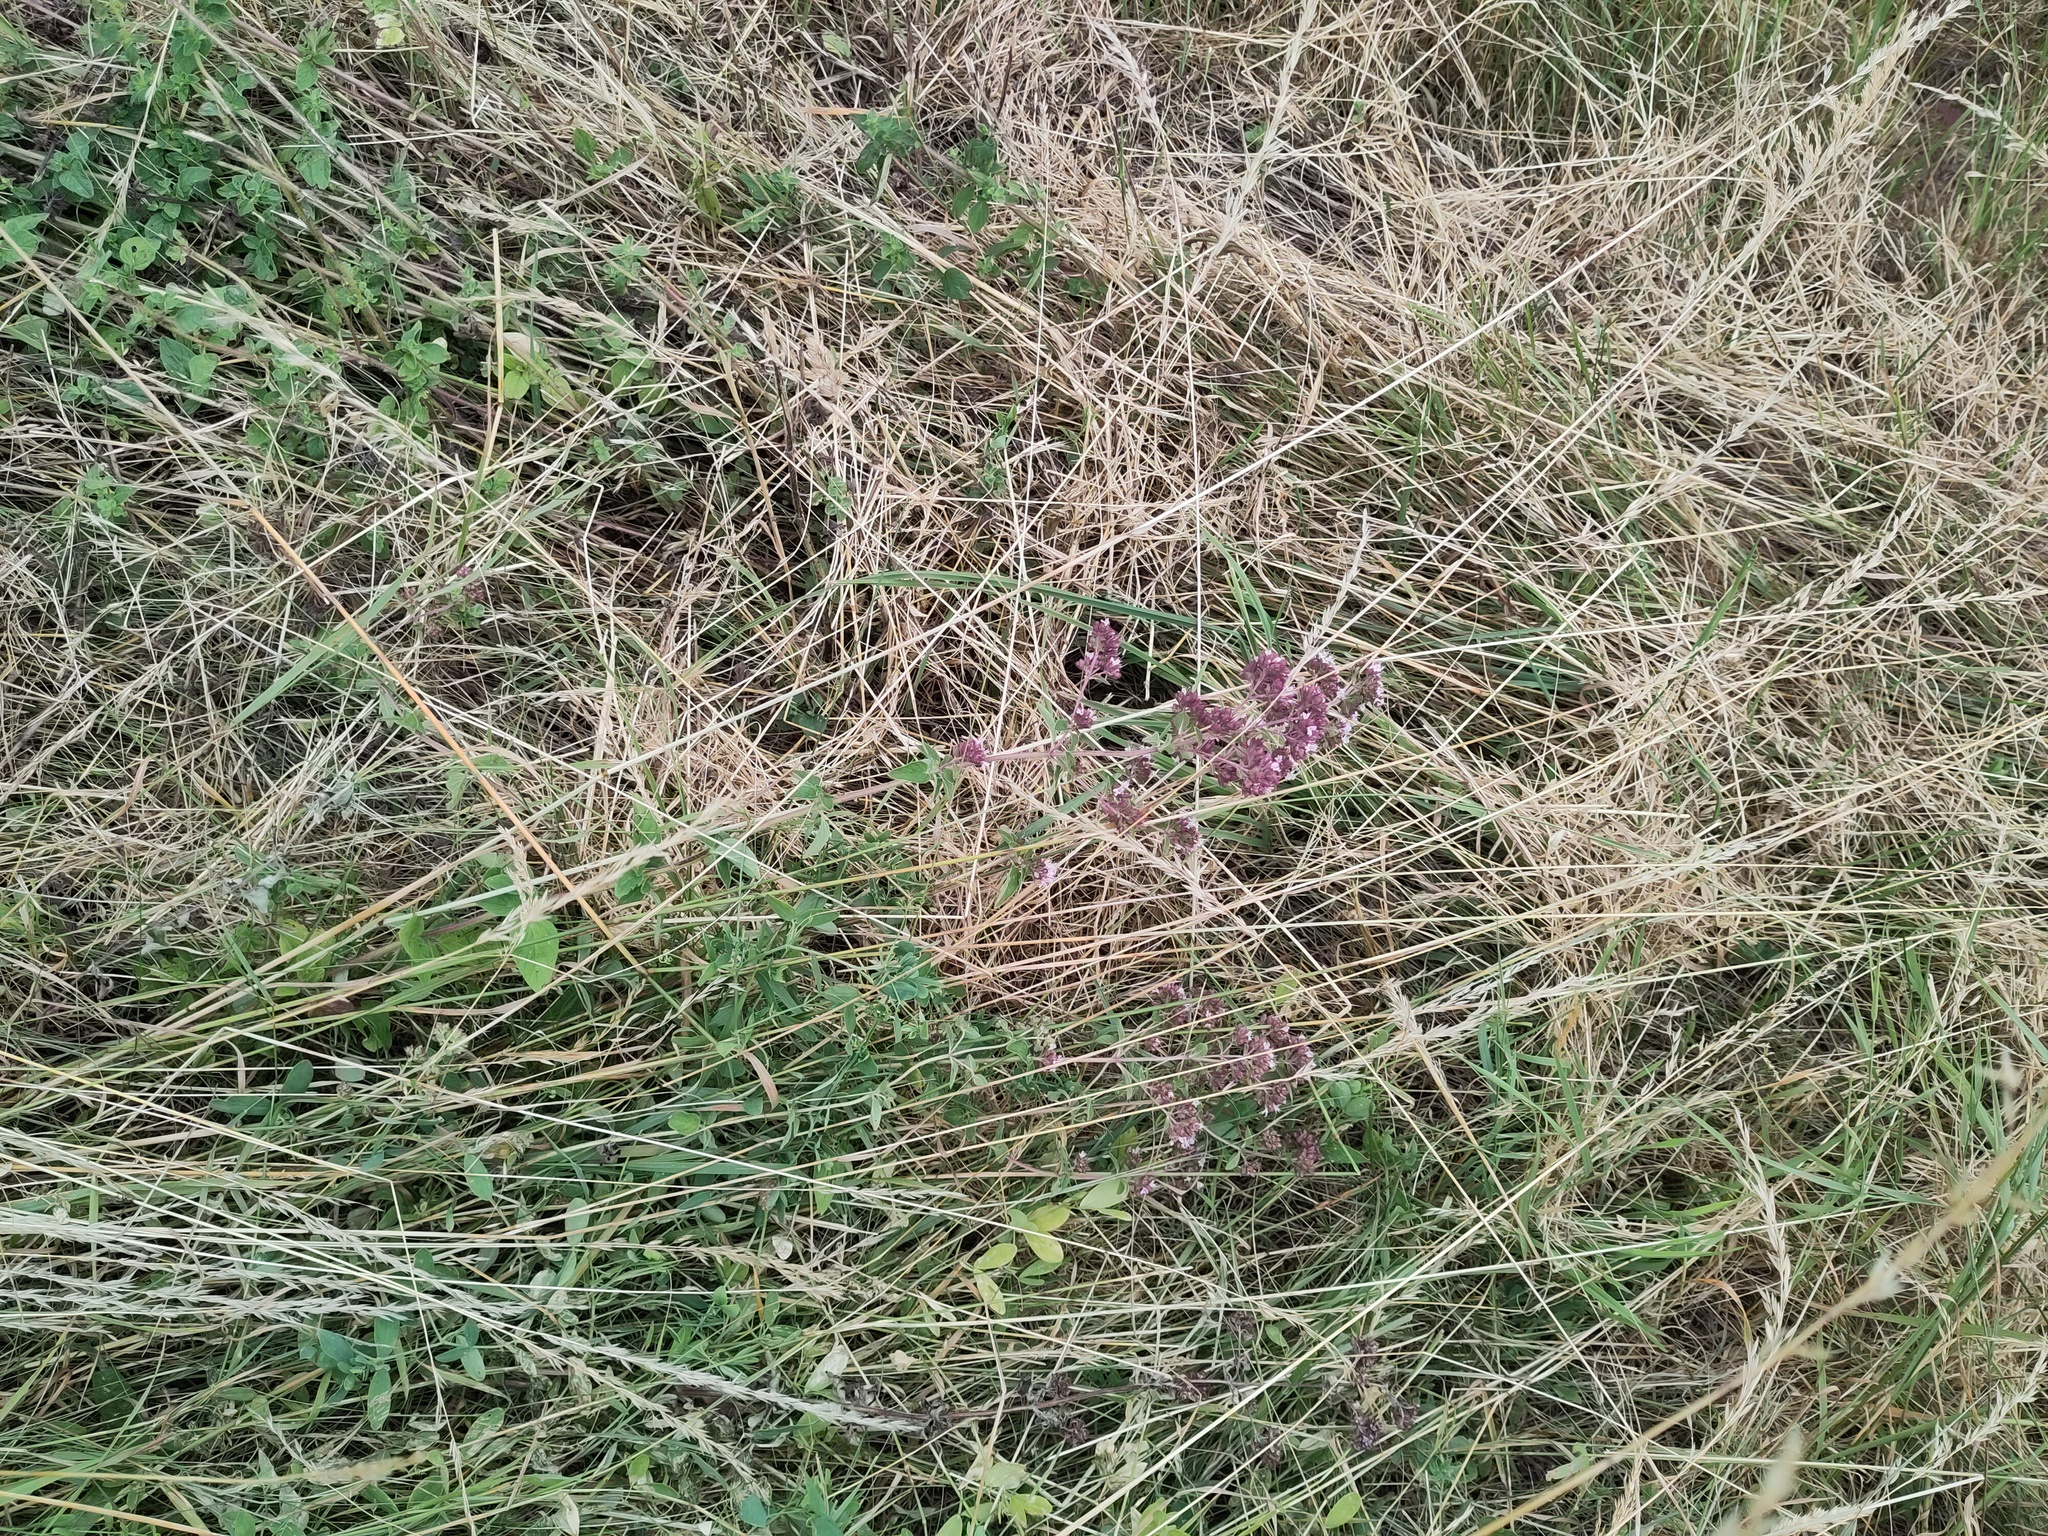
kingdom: Plantae
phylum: Tracheophyta
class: Magnoliopsida
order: Lamiales
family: Lamiaceae
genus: Origanum
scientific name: Origanum vulgare
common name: Wild marjoram
